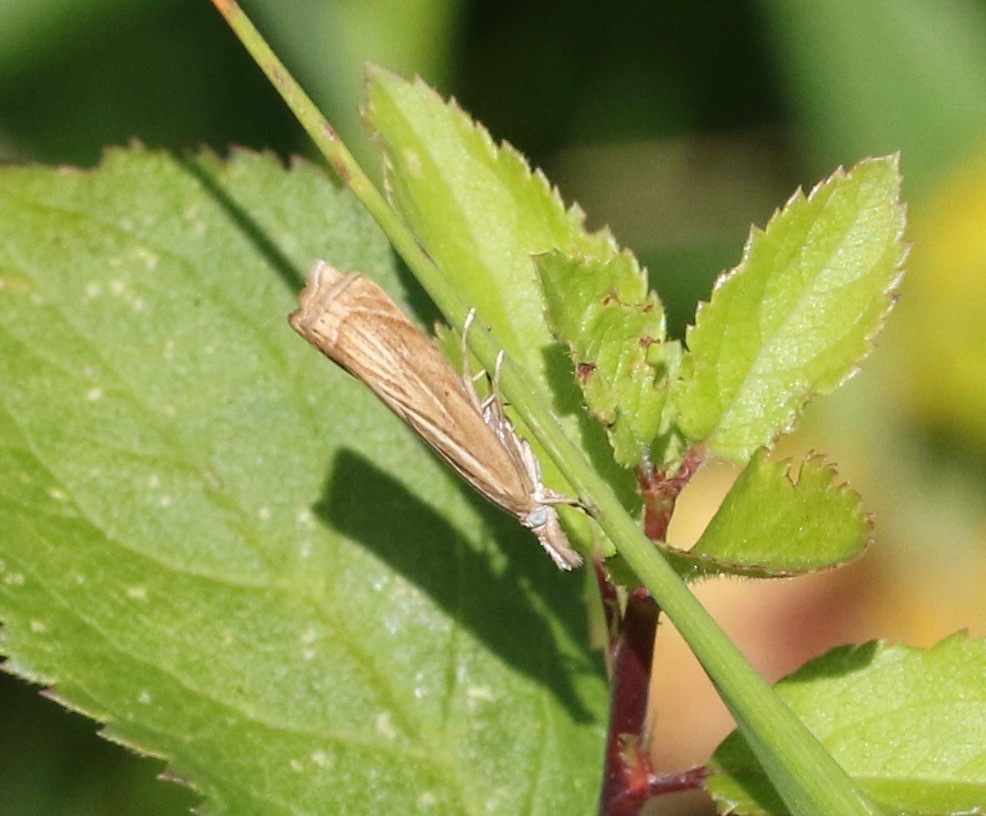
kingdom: Animalia
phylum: Arthropoda
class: Insecta
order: Lepidoptera
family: Crambidae
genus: Chrysoteuchia
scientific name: Chrysoteuchia culmella
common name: Garden grass-veneer
